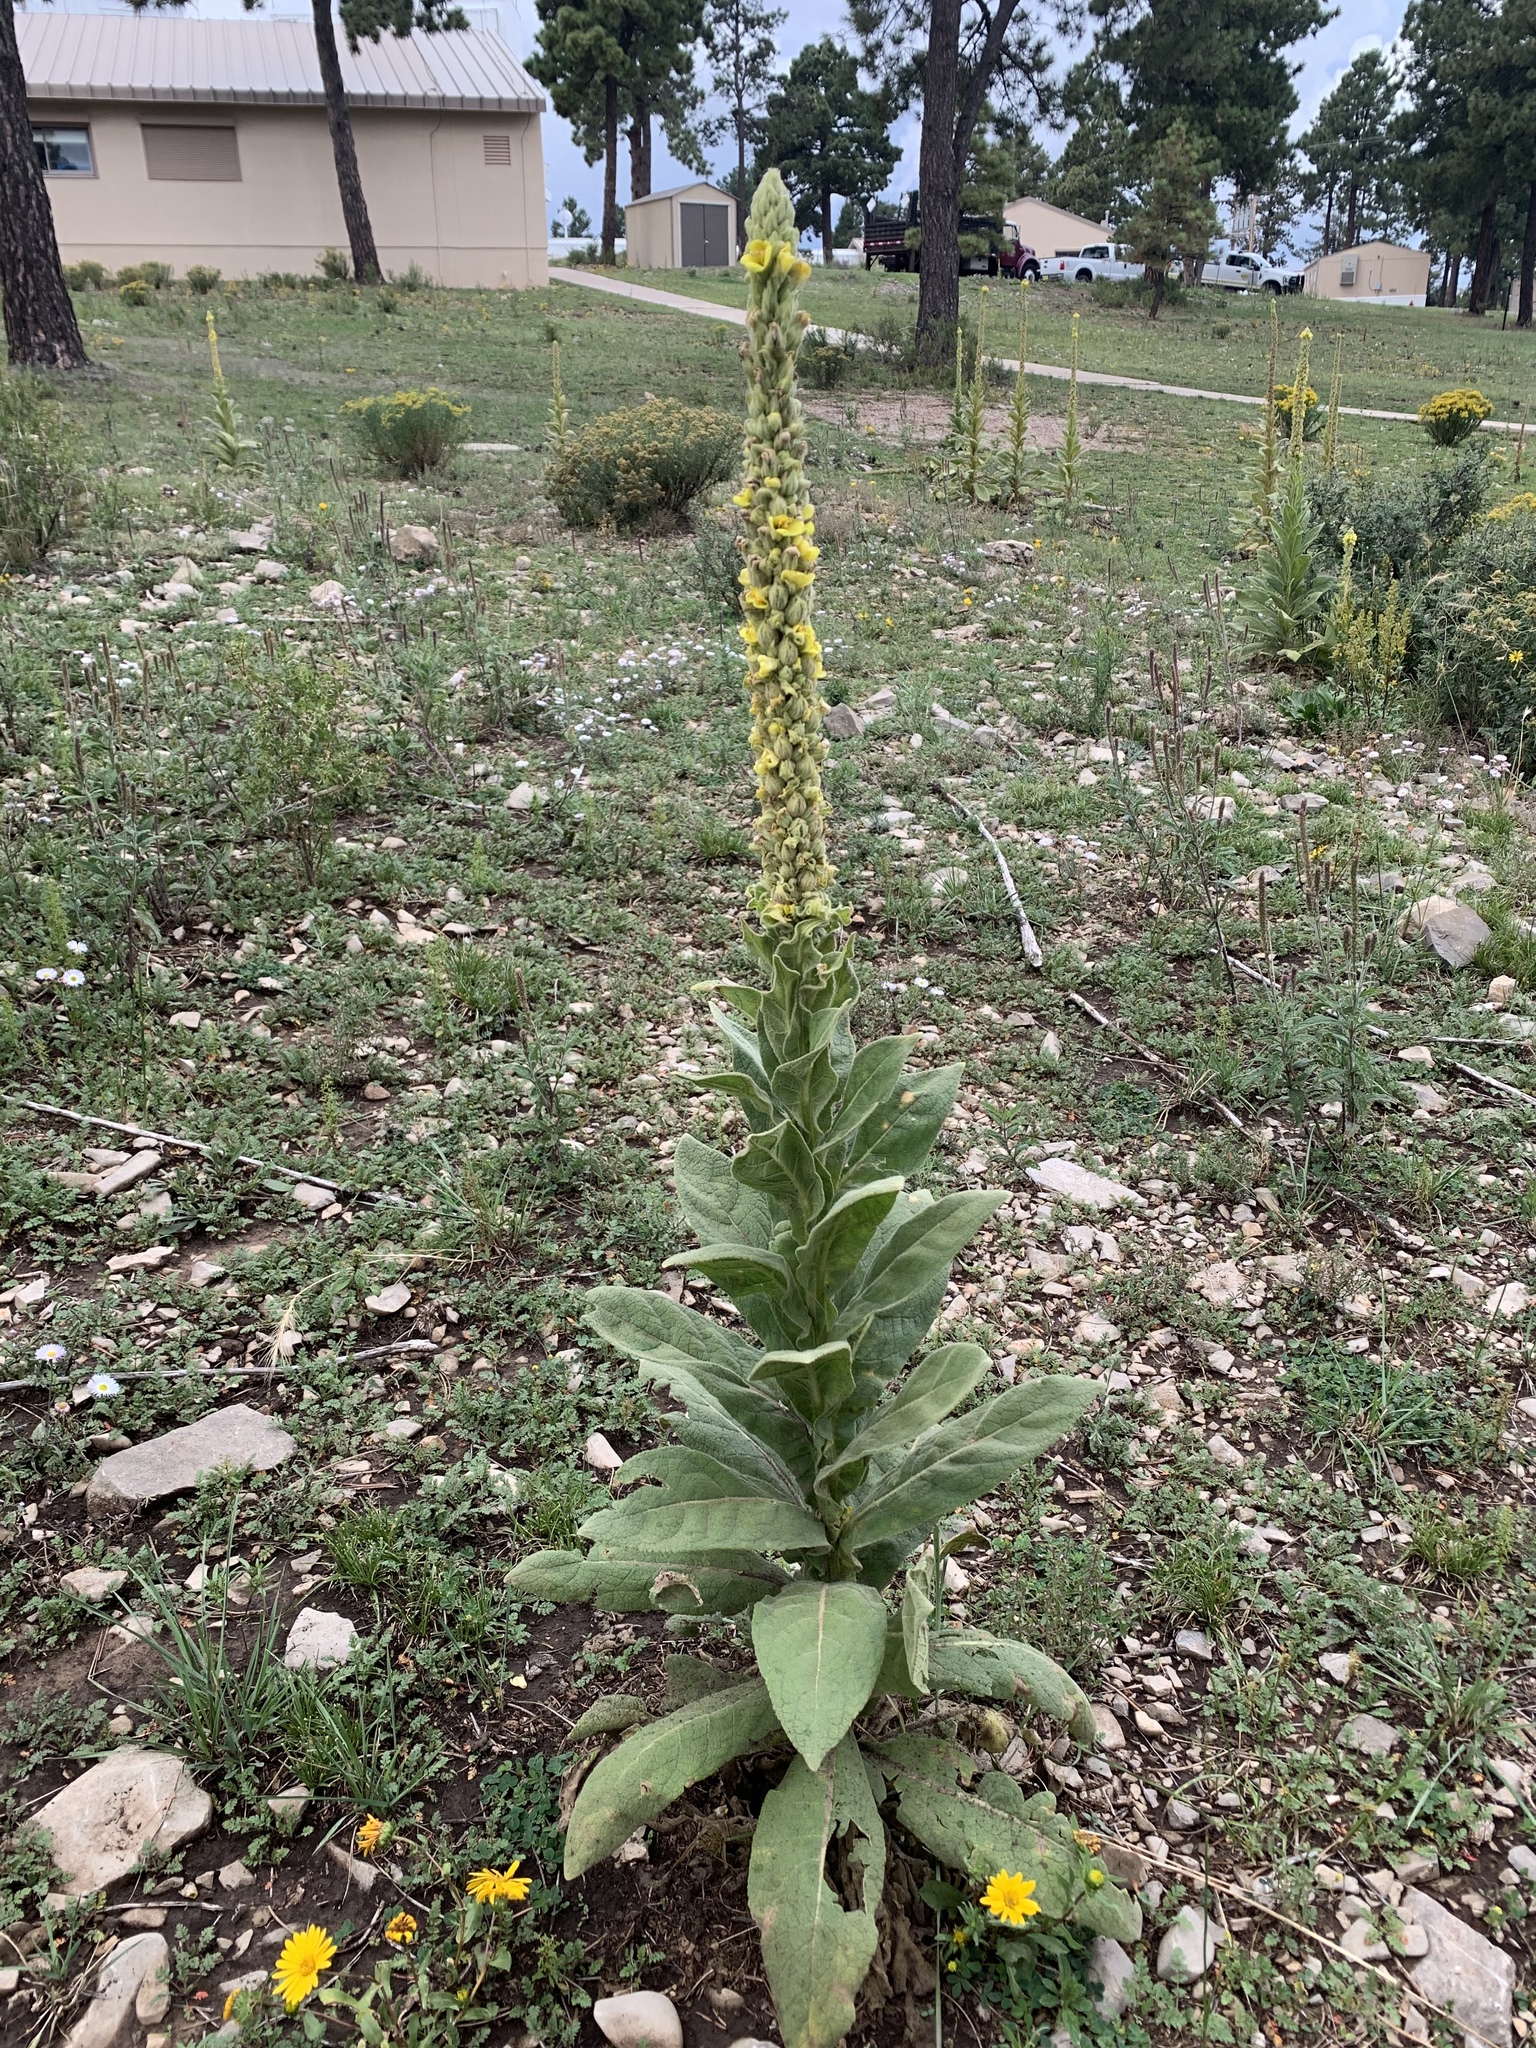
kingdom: Plantae
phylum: Tracheophyta
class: Magnoliopsida
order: Lamiales
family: Scrophulariaceae
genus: Verbascum
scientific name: Verbascum thapsus
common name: Common mullein
